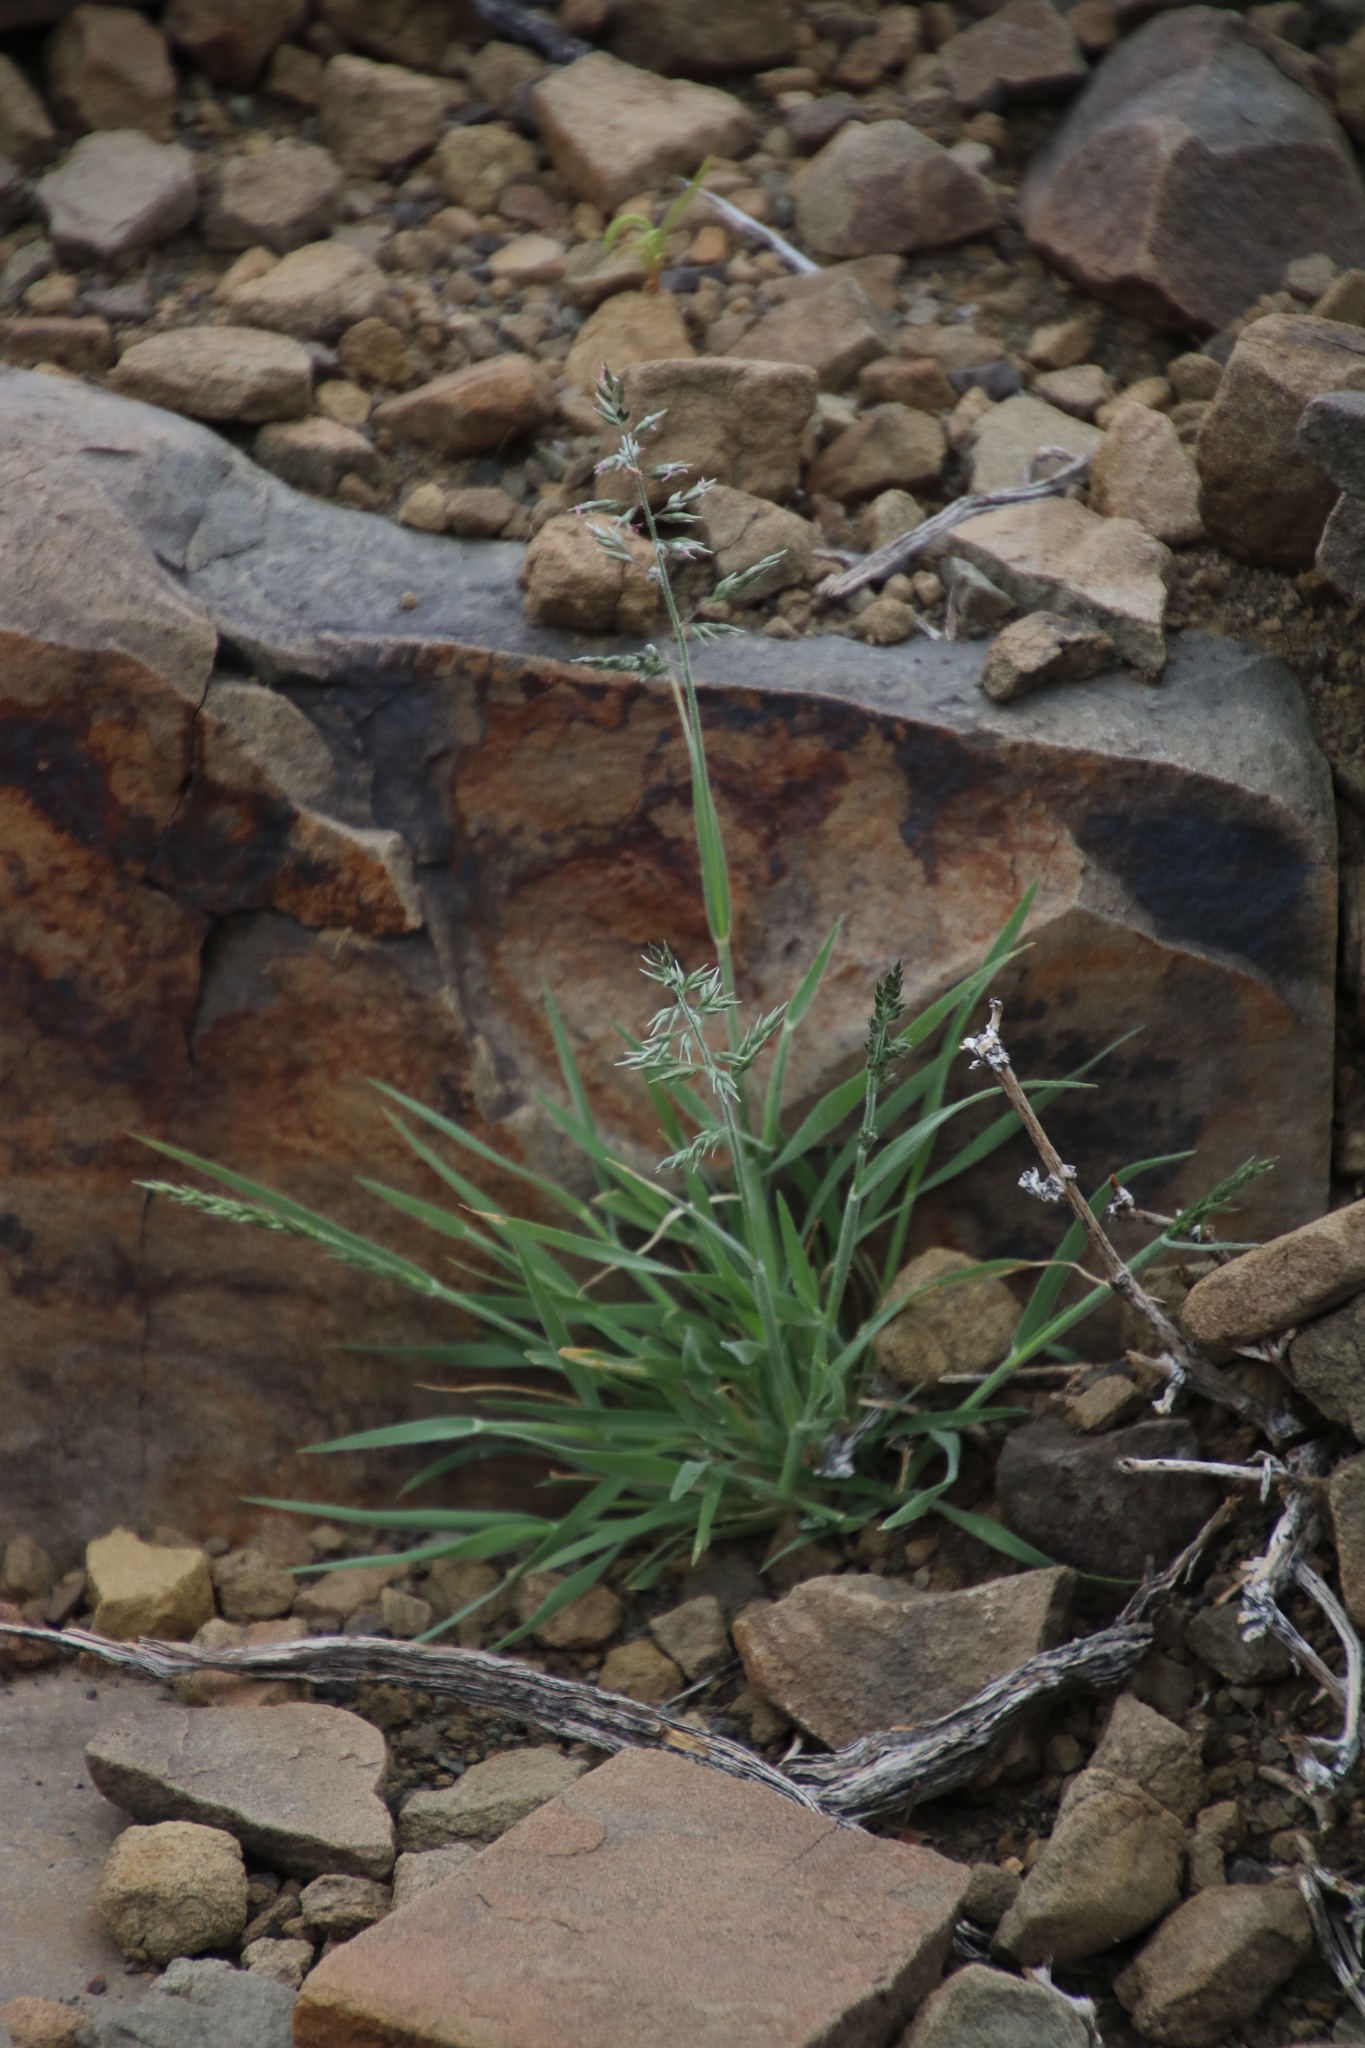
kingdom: Plantae
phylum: Tracheophyta
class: Liliopsida
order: Poales
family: Poaceae
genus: Enneapogon
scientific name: Enneapogon scaber
